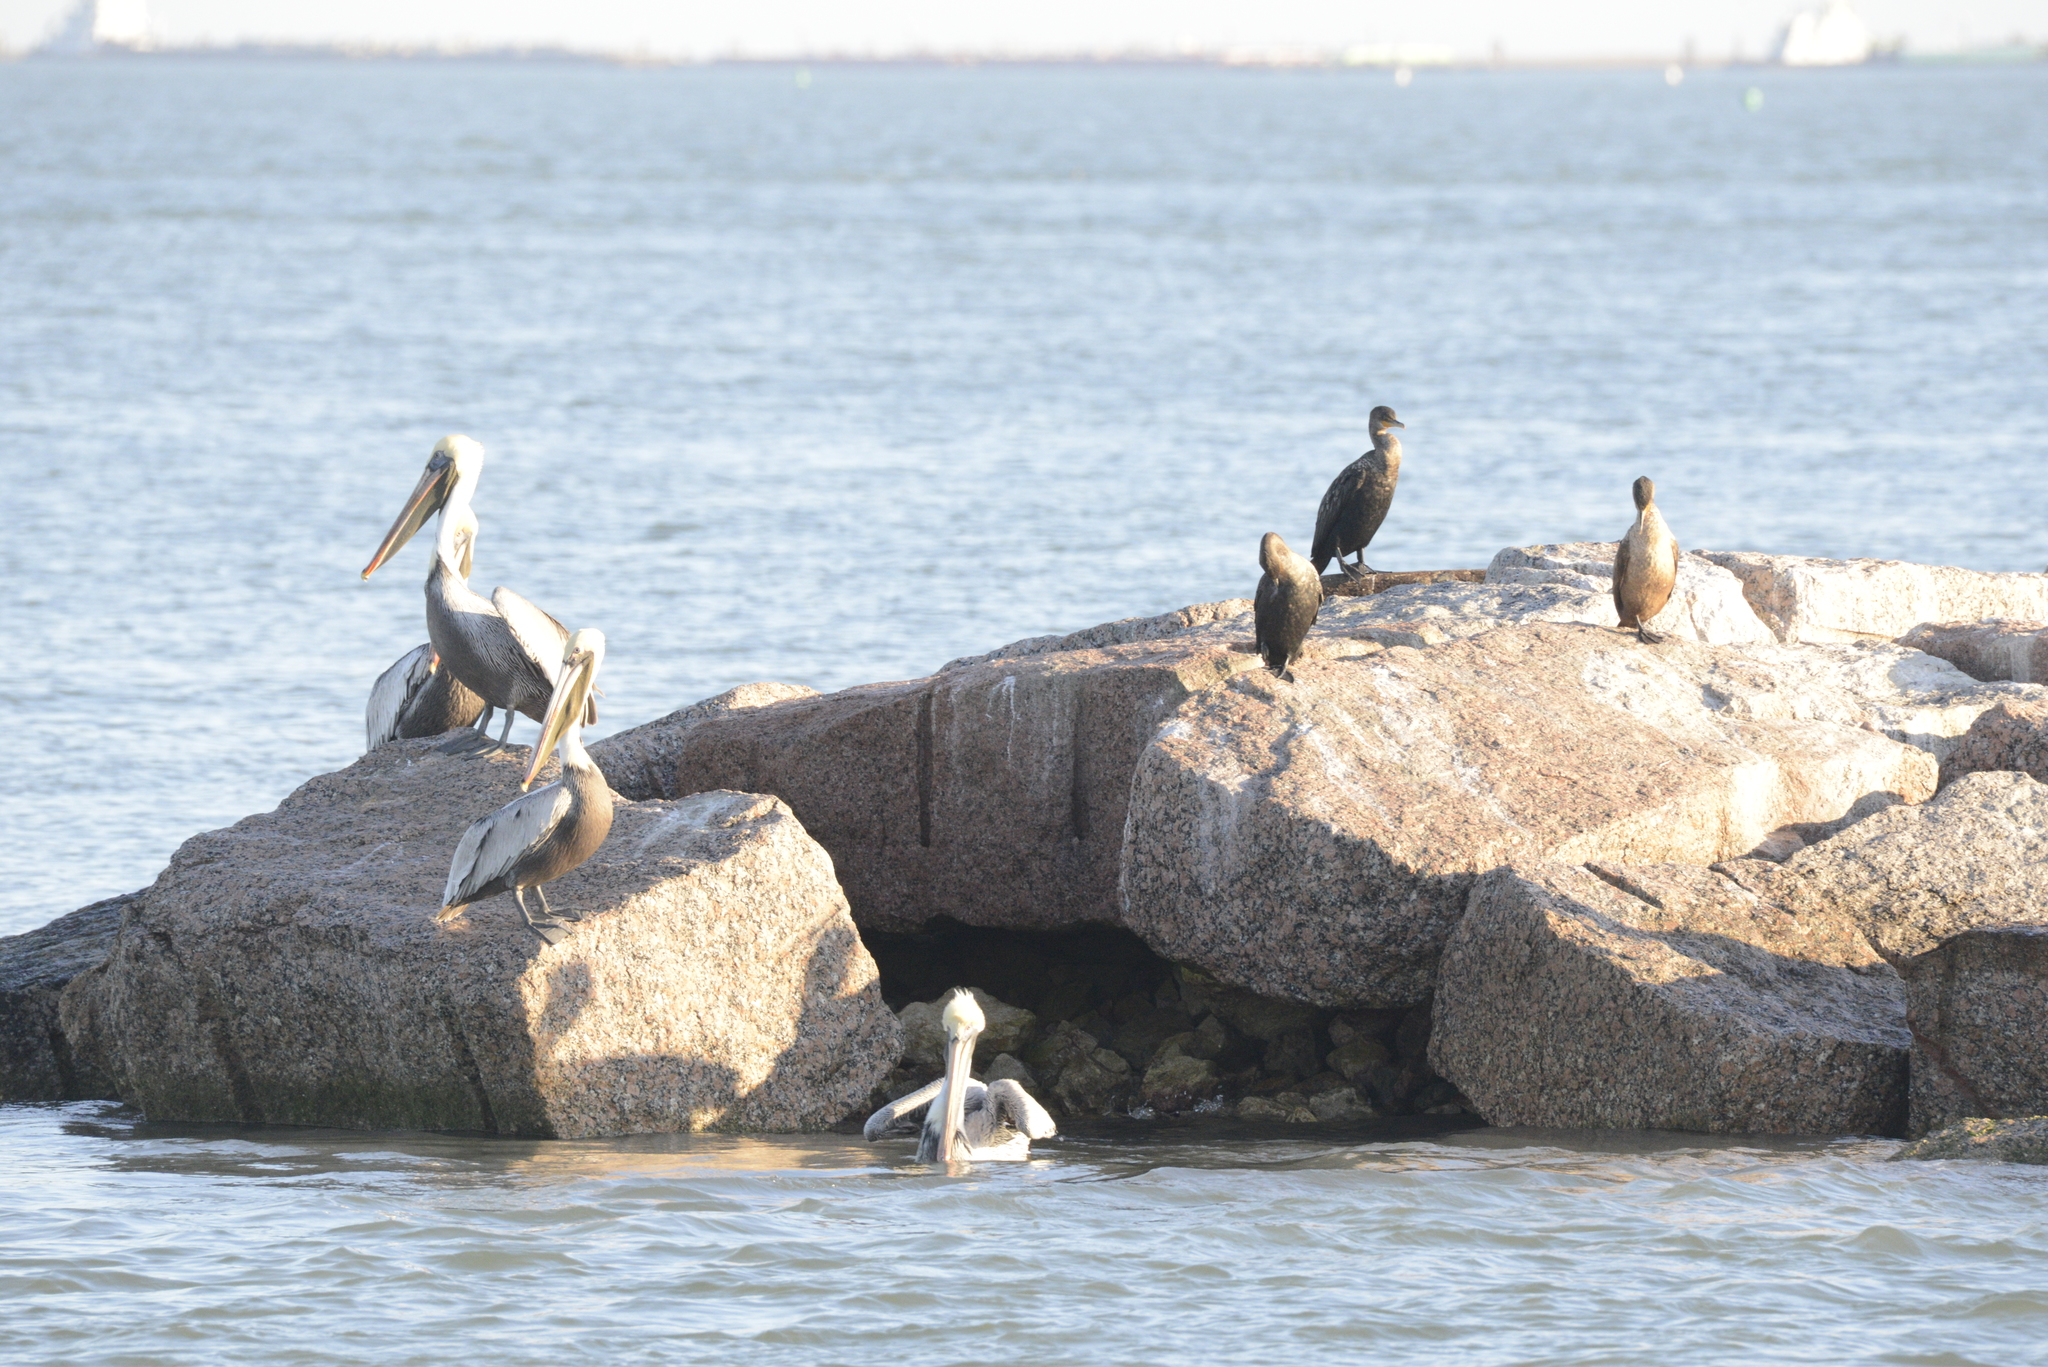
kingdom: Animalia
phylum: Chordata
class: Aves
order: Pelecaniformes
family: Pelecanidae
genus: Pelecanus
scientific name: Pelecanus occidentalis
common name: Brown pelican
